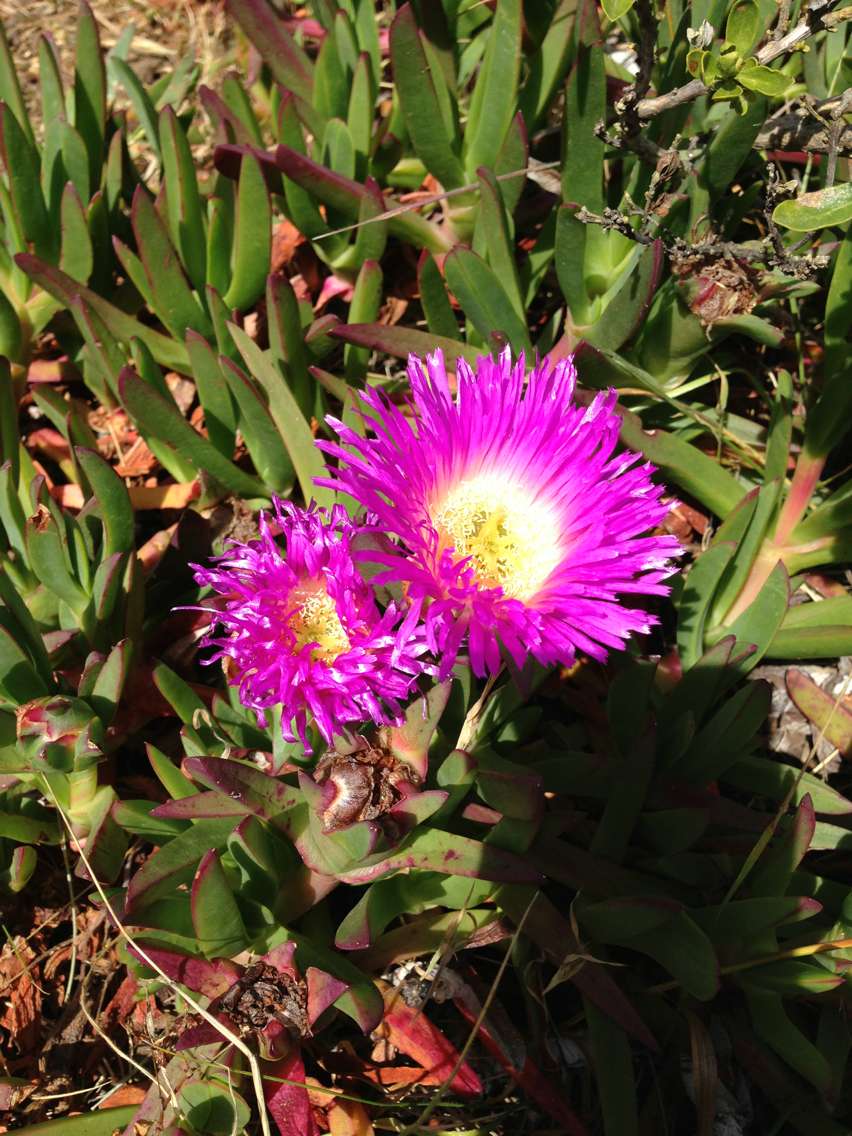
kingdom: Plantae
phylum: Tracheophyta
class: Magnoliopsida
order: Caryophyllales
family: Aizoaceae
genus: Carpobrotus
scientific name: Carpobrotus edulis
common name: Hottentot-fig
